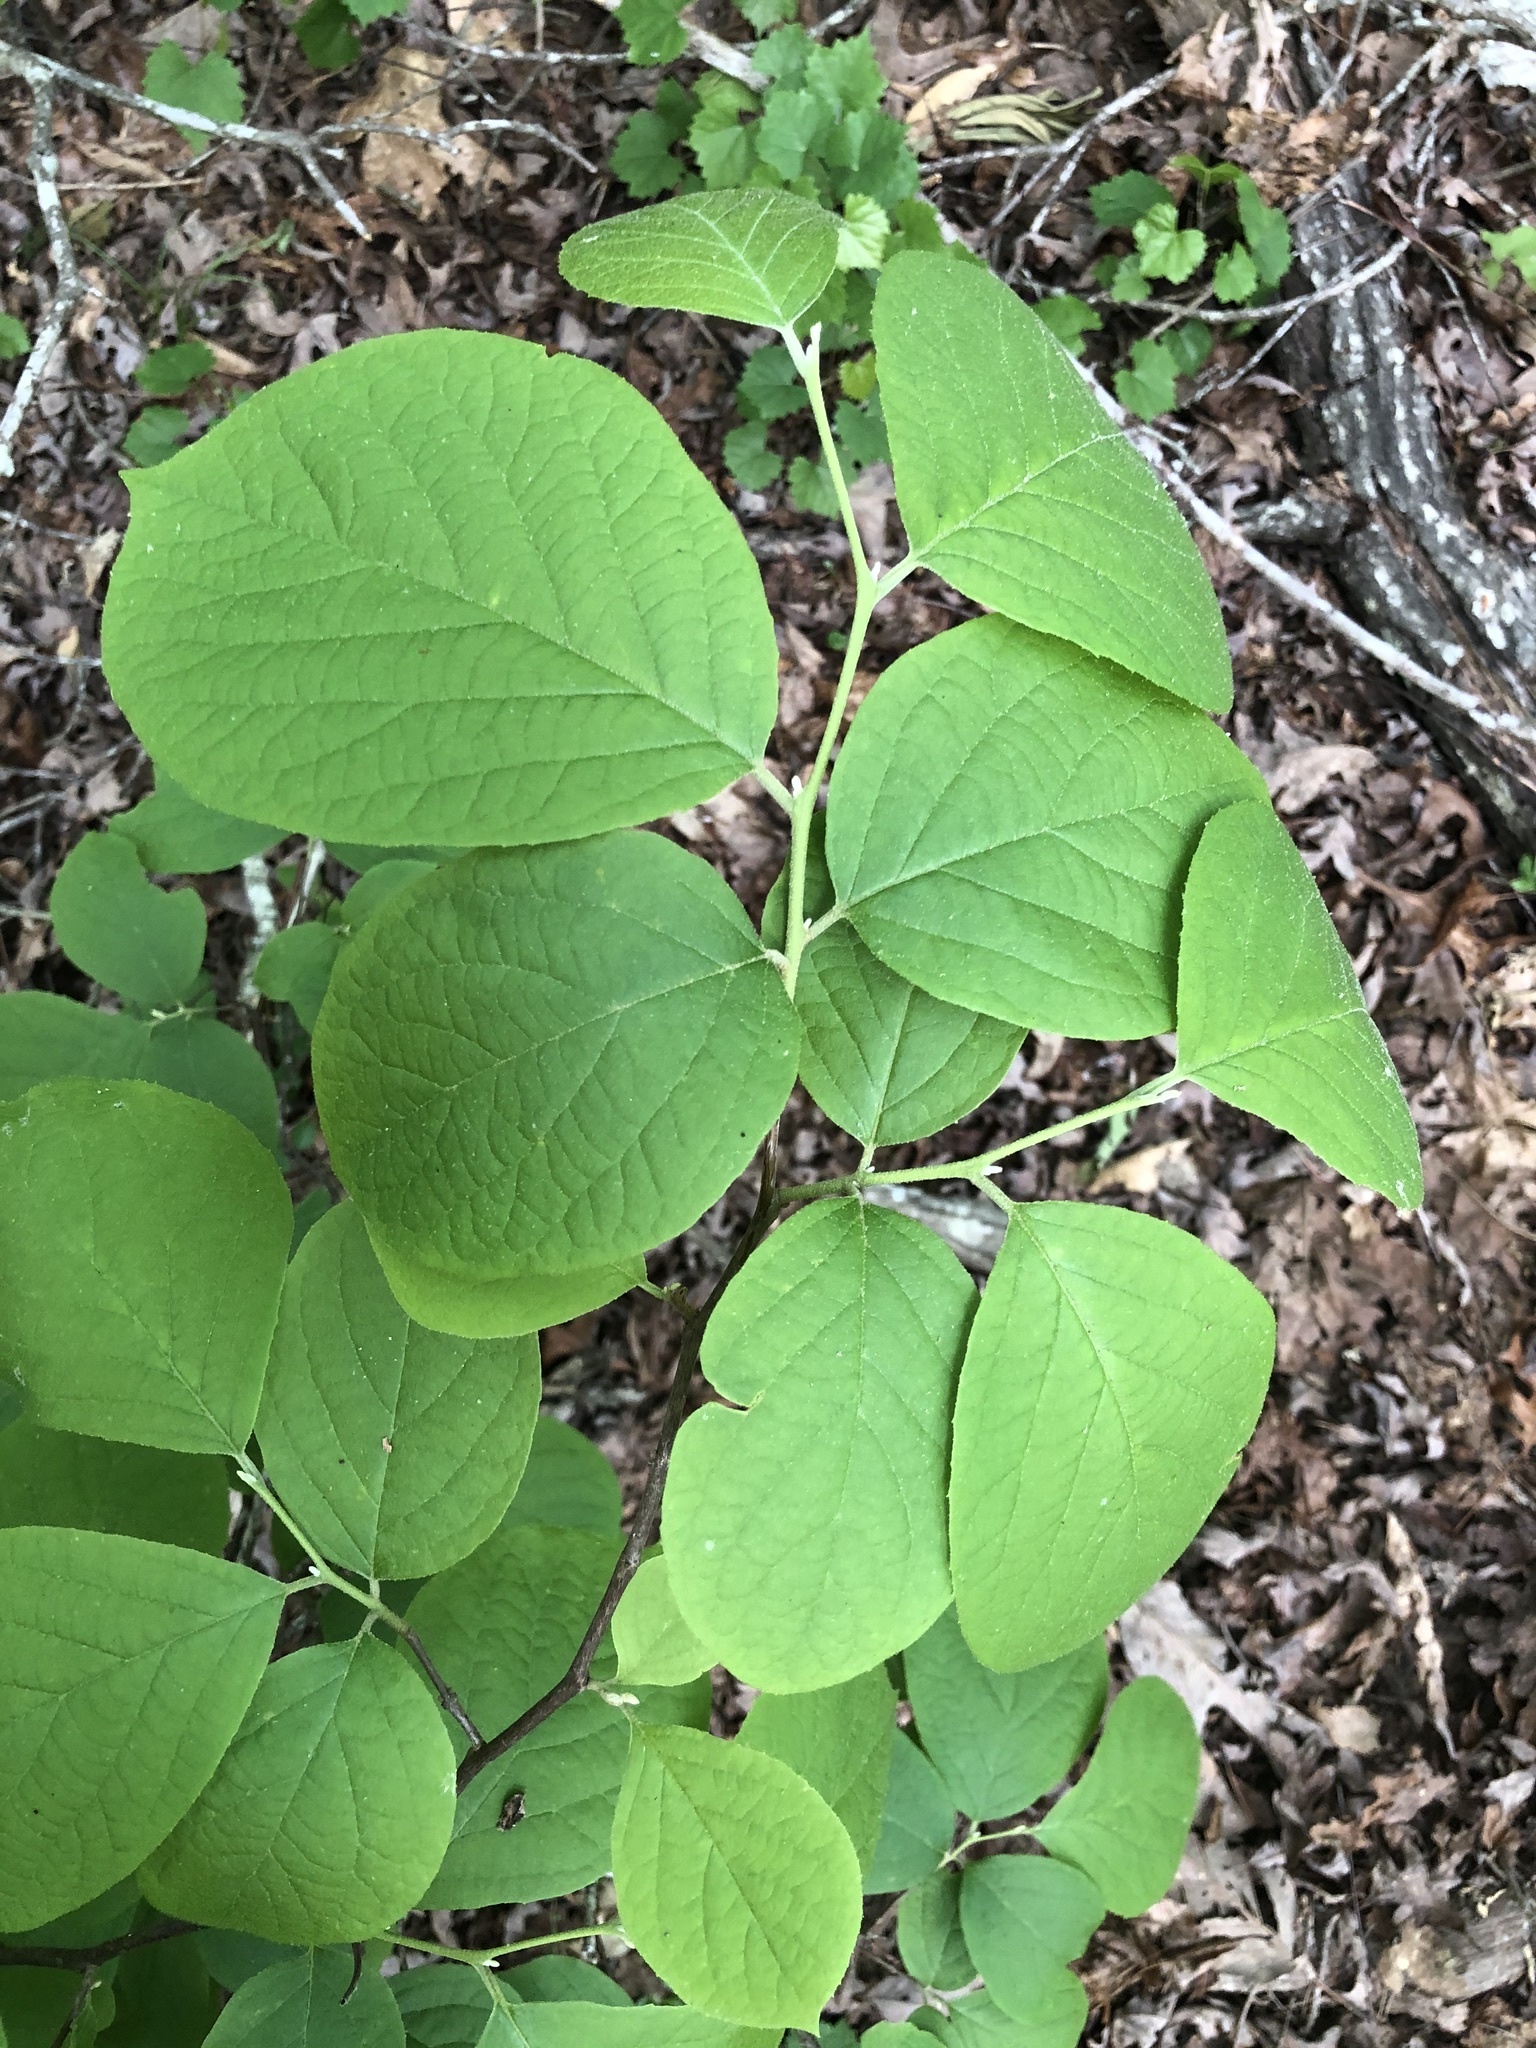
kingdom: Plantae
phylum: Tracheophyta
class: Magnoliopsida
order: Ericales
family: Styracaceae
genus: Styrax
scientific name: Styrax grandifolius
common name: Big-leaf snowbell
